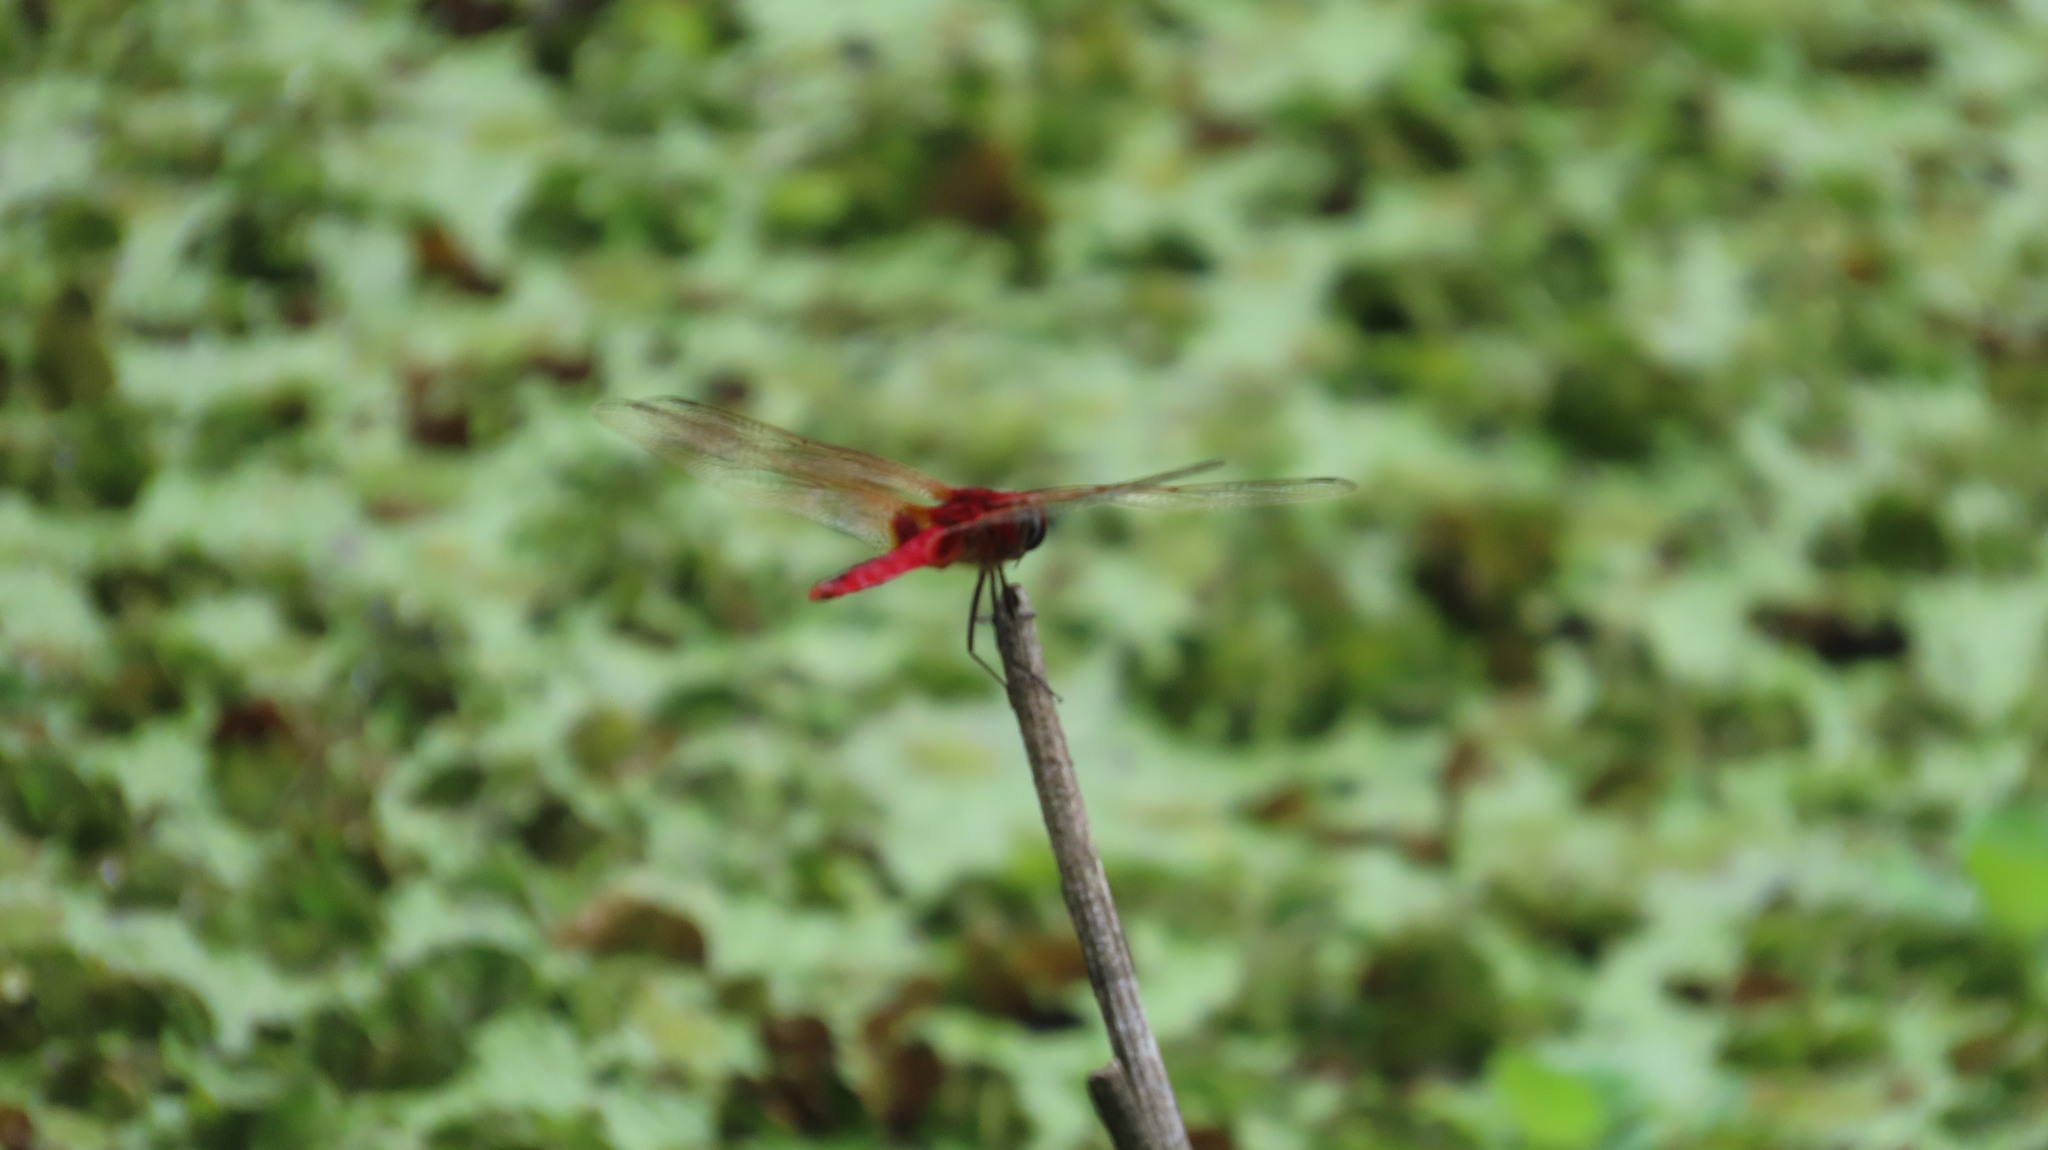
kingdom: Animalia
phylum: Arthropoda
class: Insecta
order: Odonata
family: Libellulidae
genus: Urothemis
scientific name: Urothemis signata
